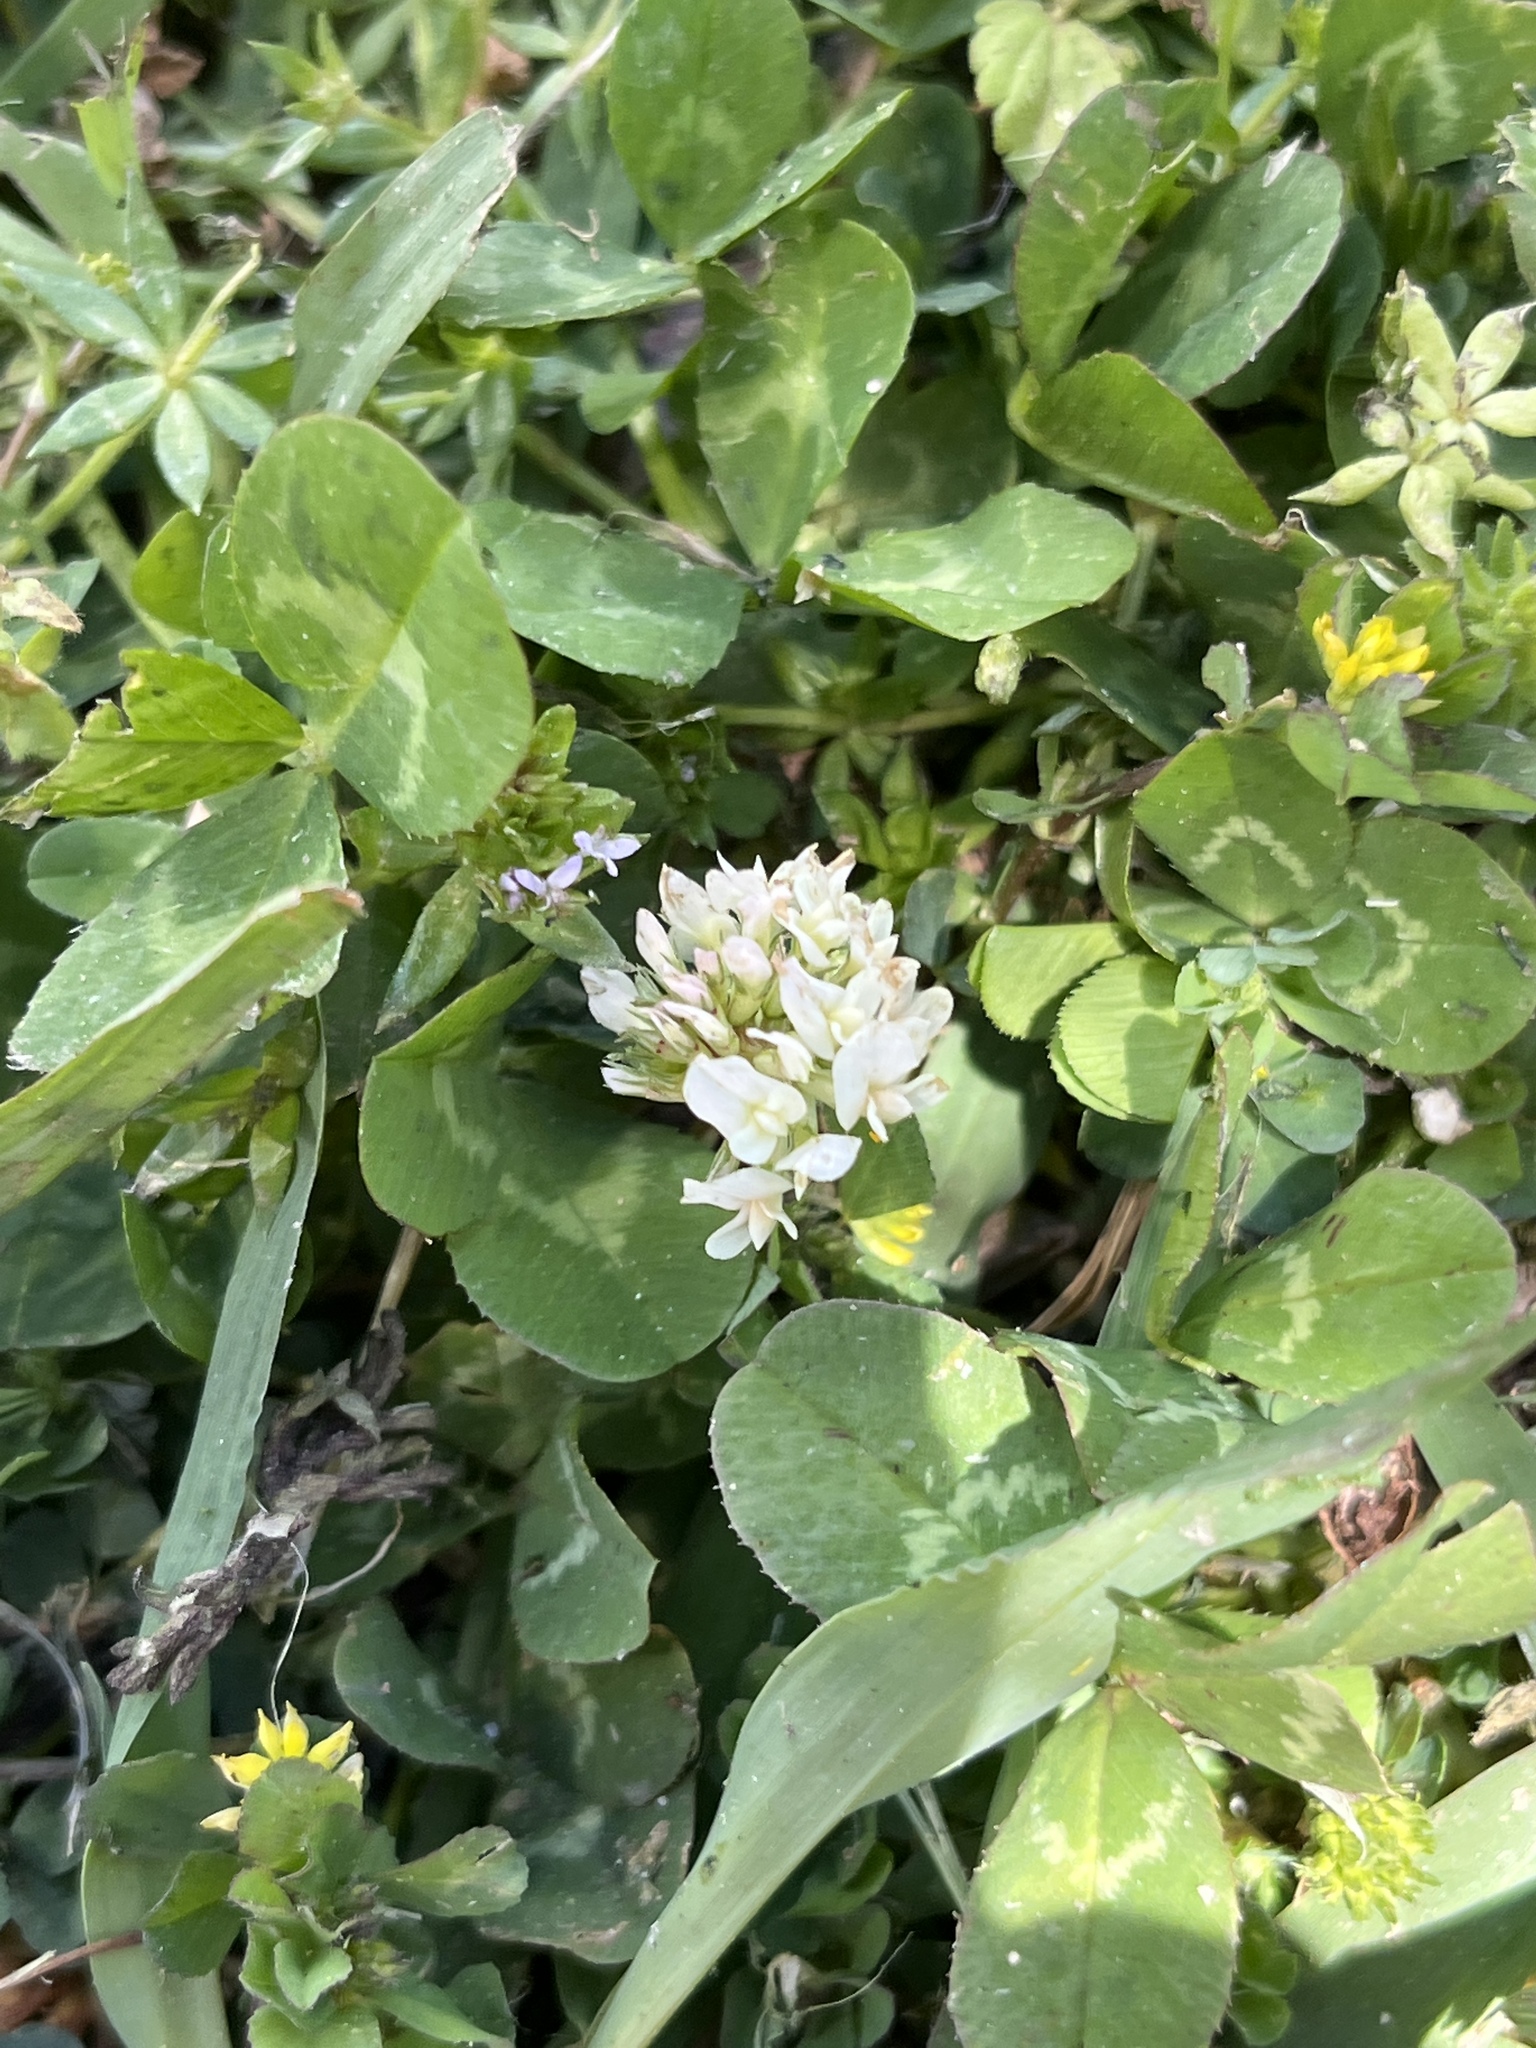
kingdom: Plantae
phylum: Tracheophyta
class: Magnoliopsida
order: Fabales
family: Fabaceae
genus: Trifolium
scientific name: Trifolium repens
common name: White clover
